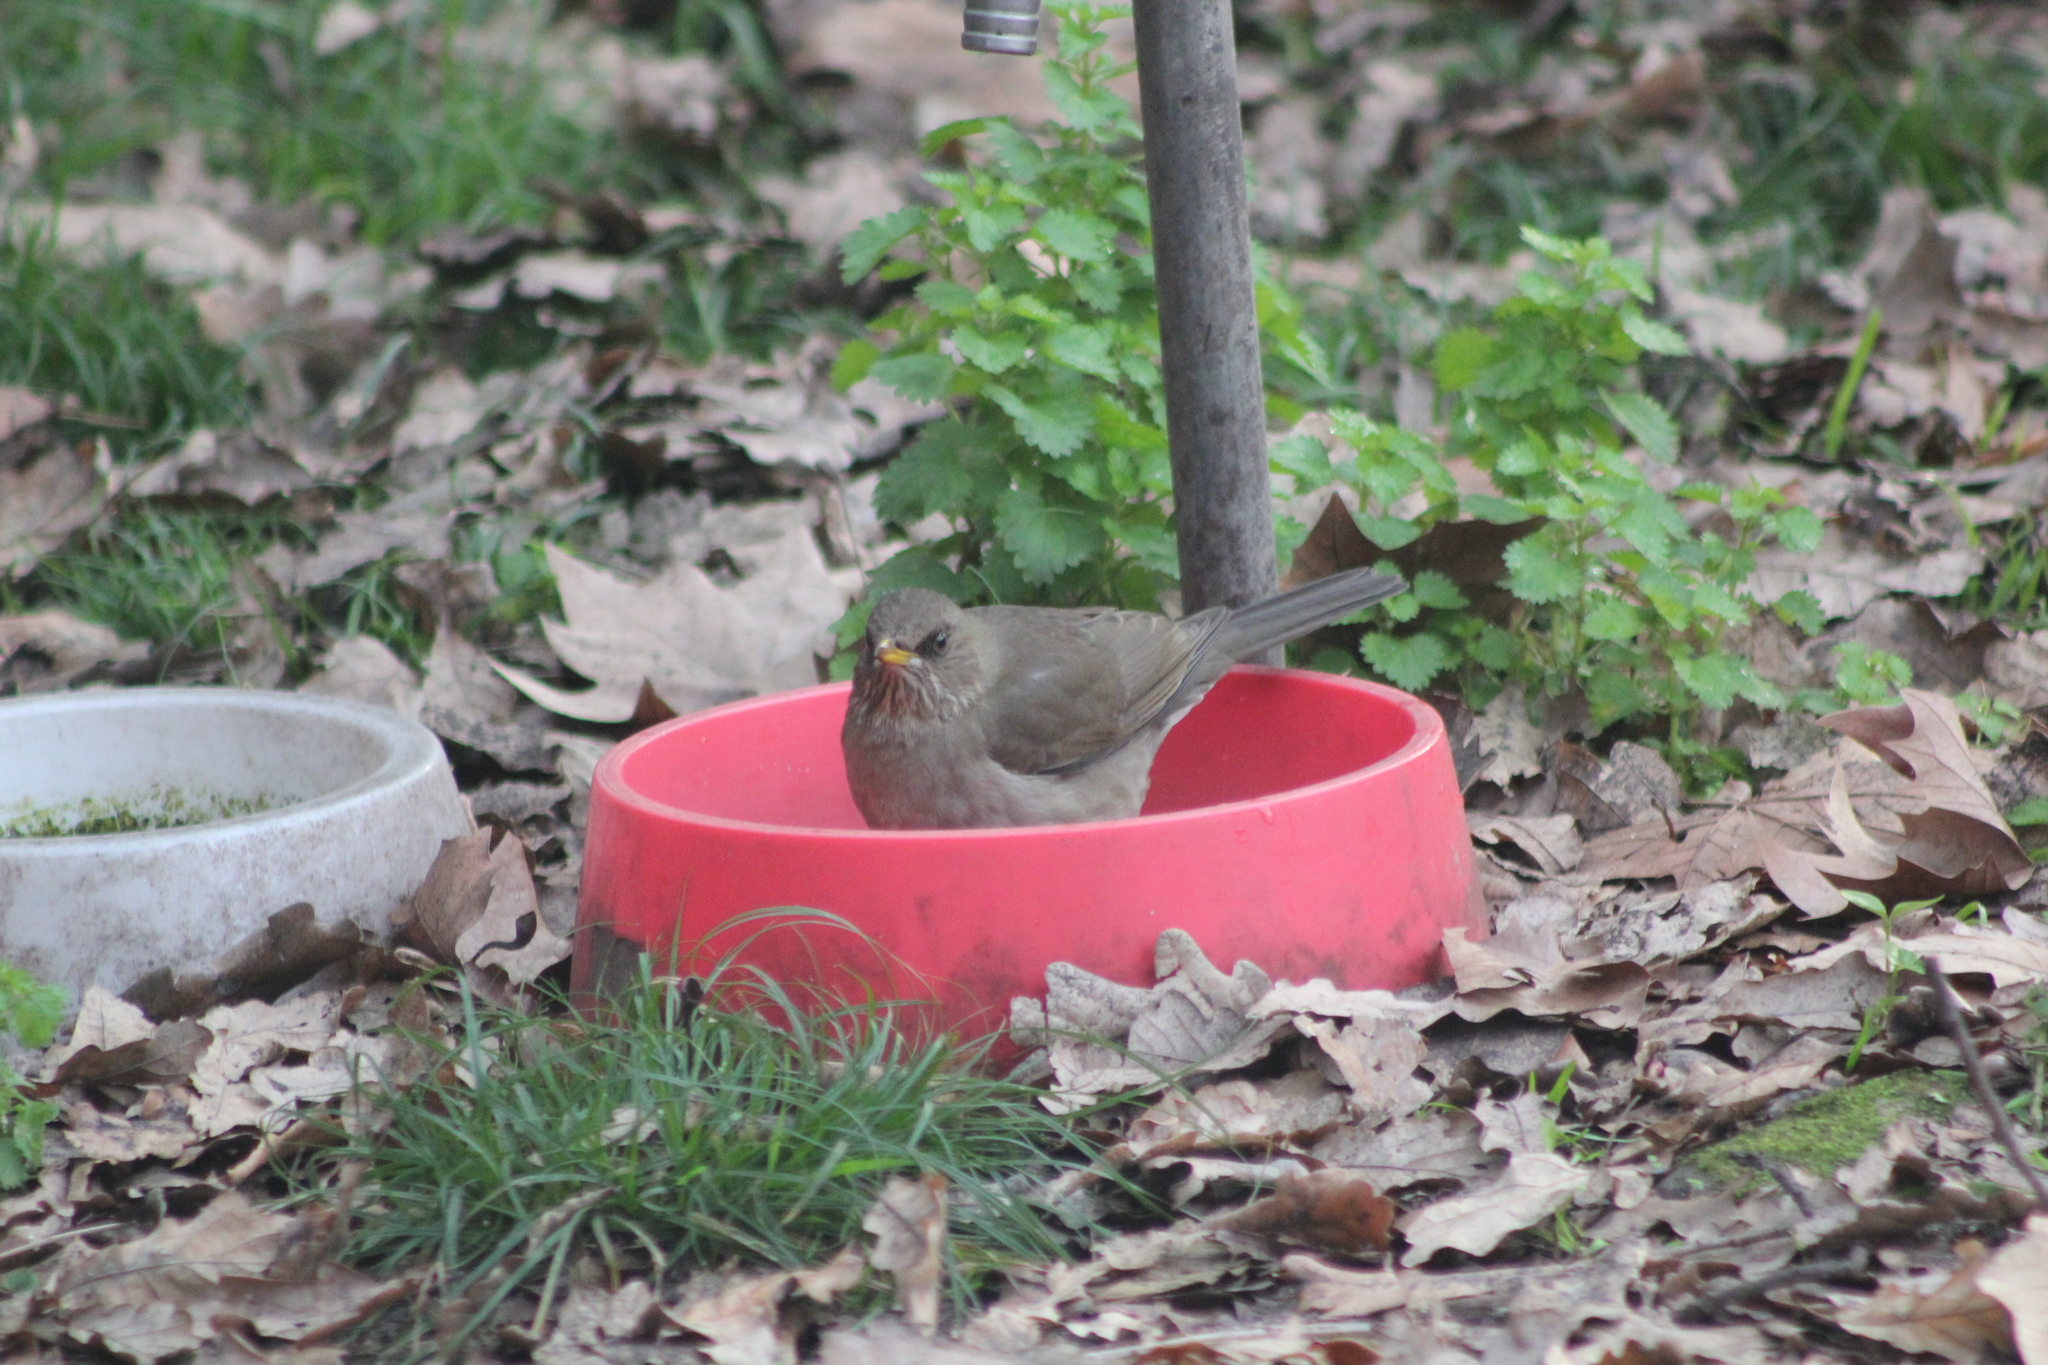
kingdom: Animalia
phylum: Chordata
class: Aves
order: Passeriformes
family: Turdidae
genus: Turdus
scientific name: Turdus amaurochalinus
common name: Creamy-bellied thrush
